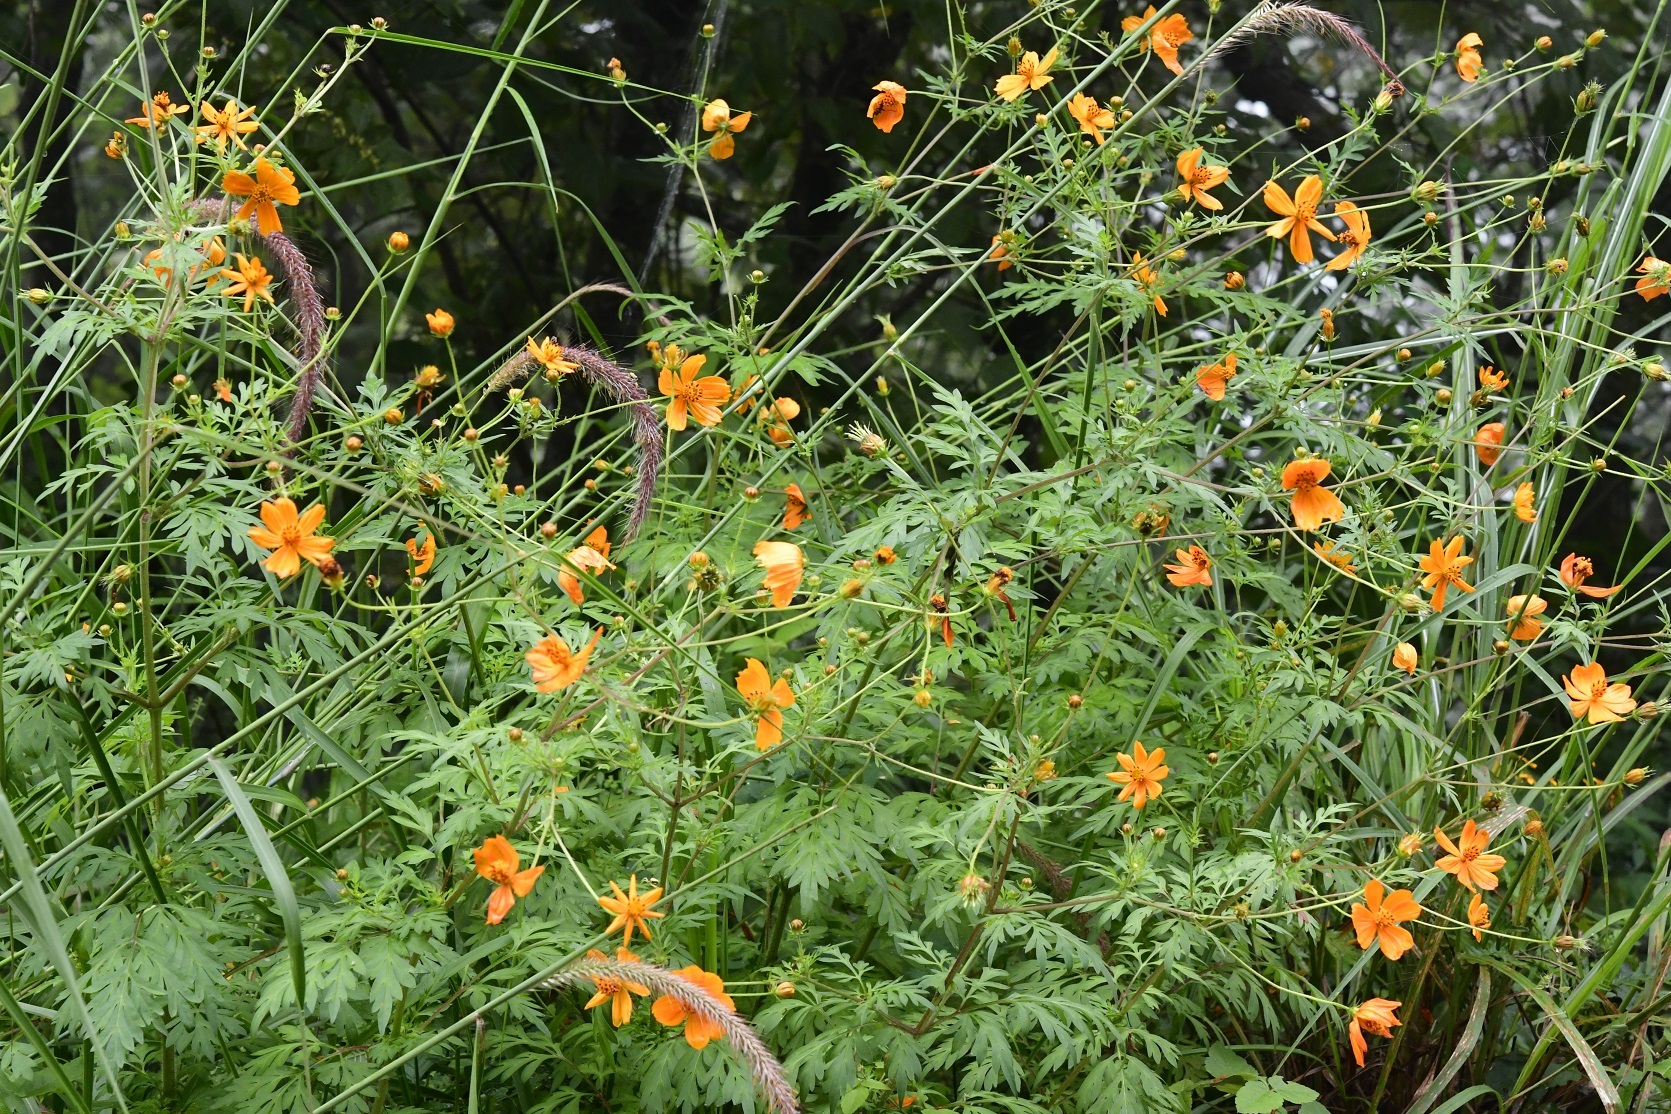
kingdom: Plantae
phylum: Tracheophyta
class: Magnoliopsida
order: Asterales
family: Asteraceae
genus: Cosmos
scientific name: Cosmos sulphureus
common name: Sulphur cosmos
